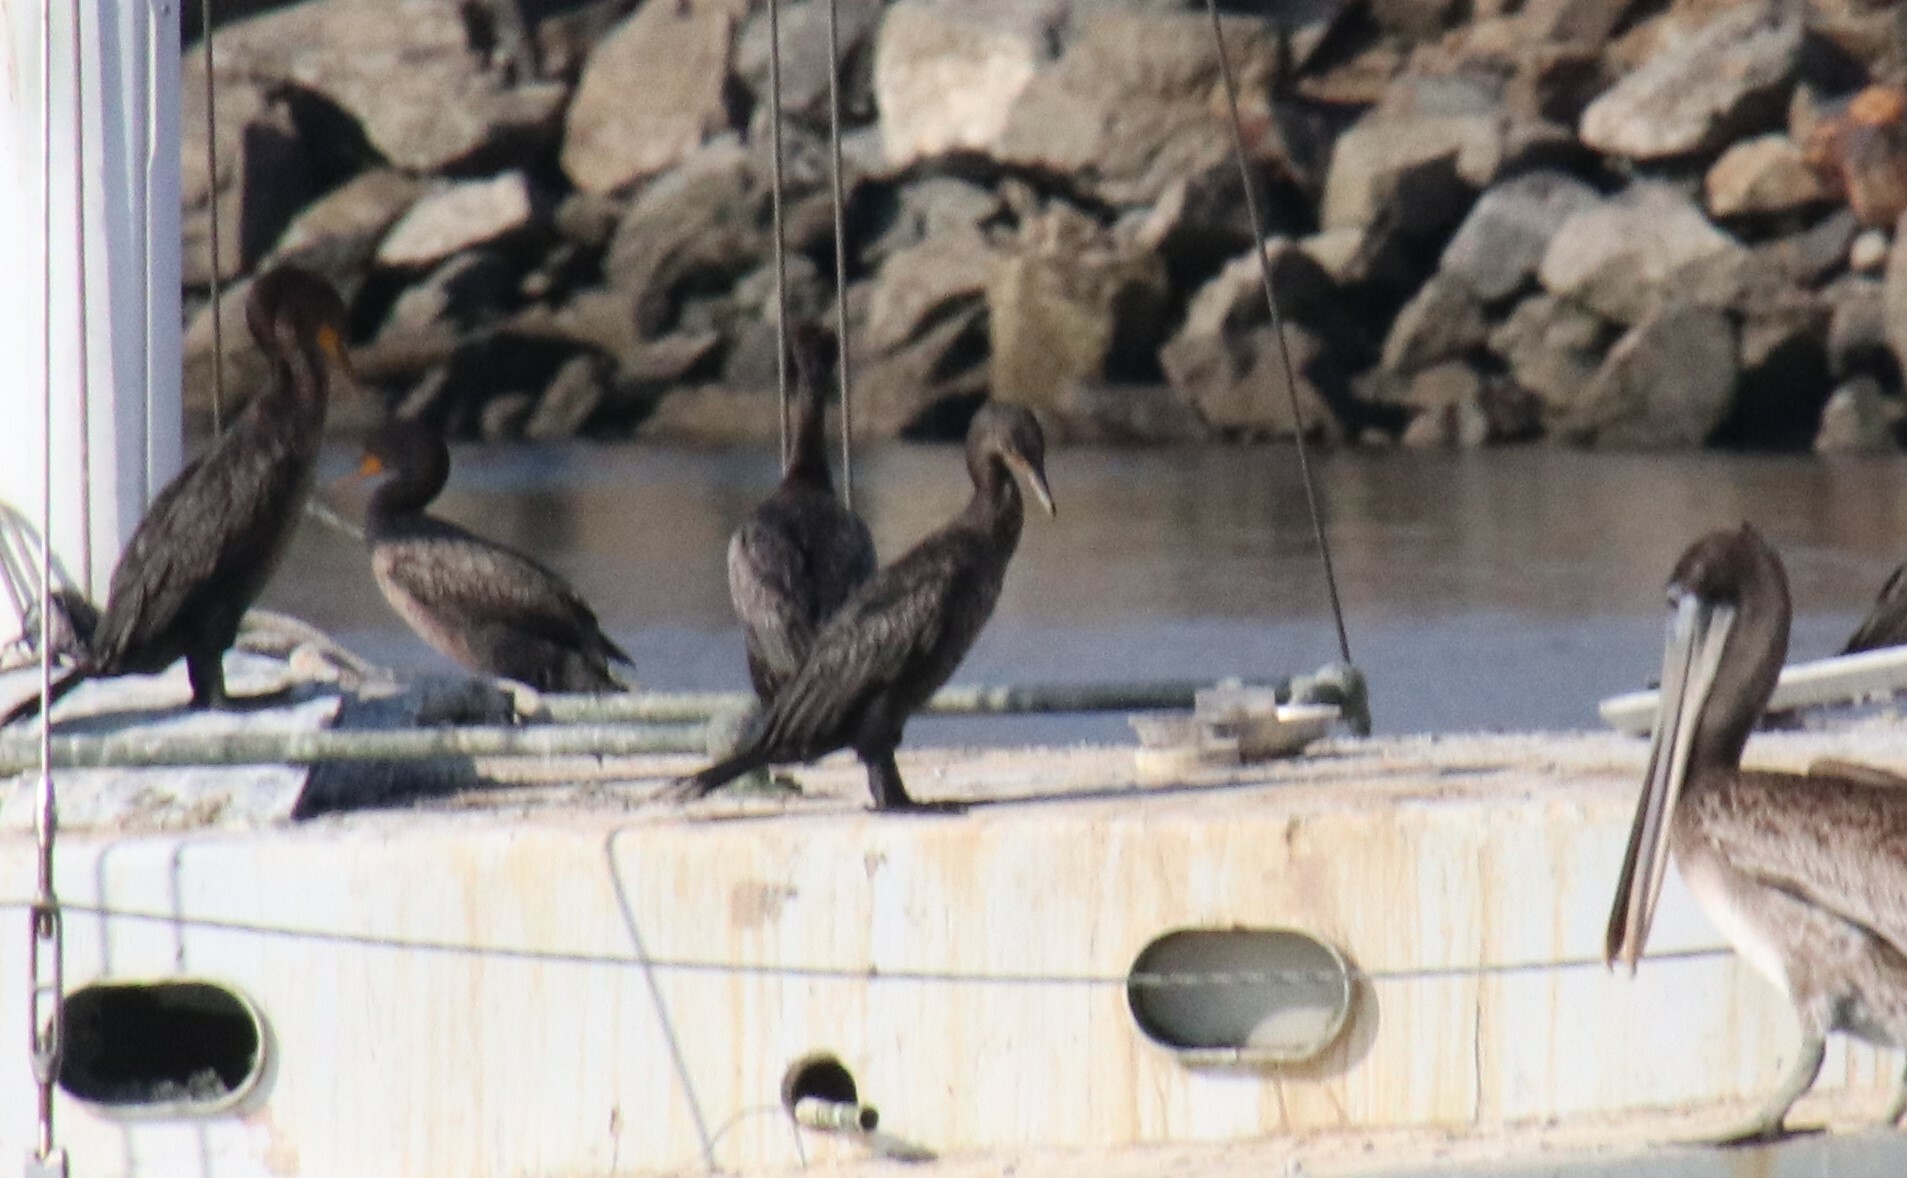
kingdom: Animalia
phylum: Chordata
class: Aves
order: Suliformes
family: Phalacrocoracidae
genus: Urile
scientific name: Urile penicillatus
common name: Brandt's cormorant
